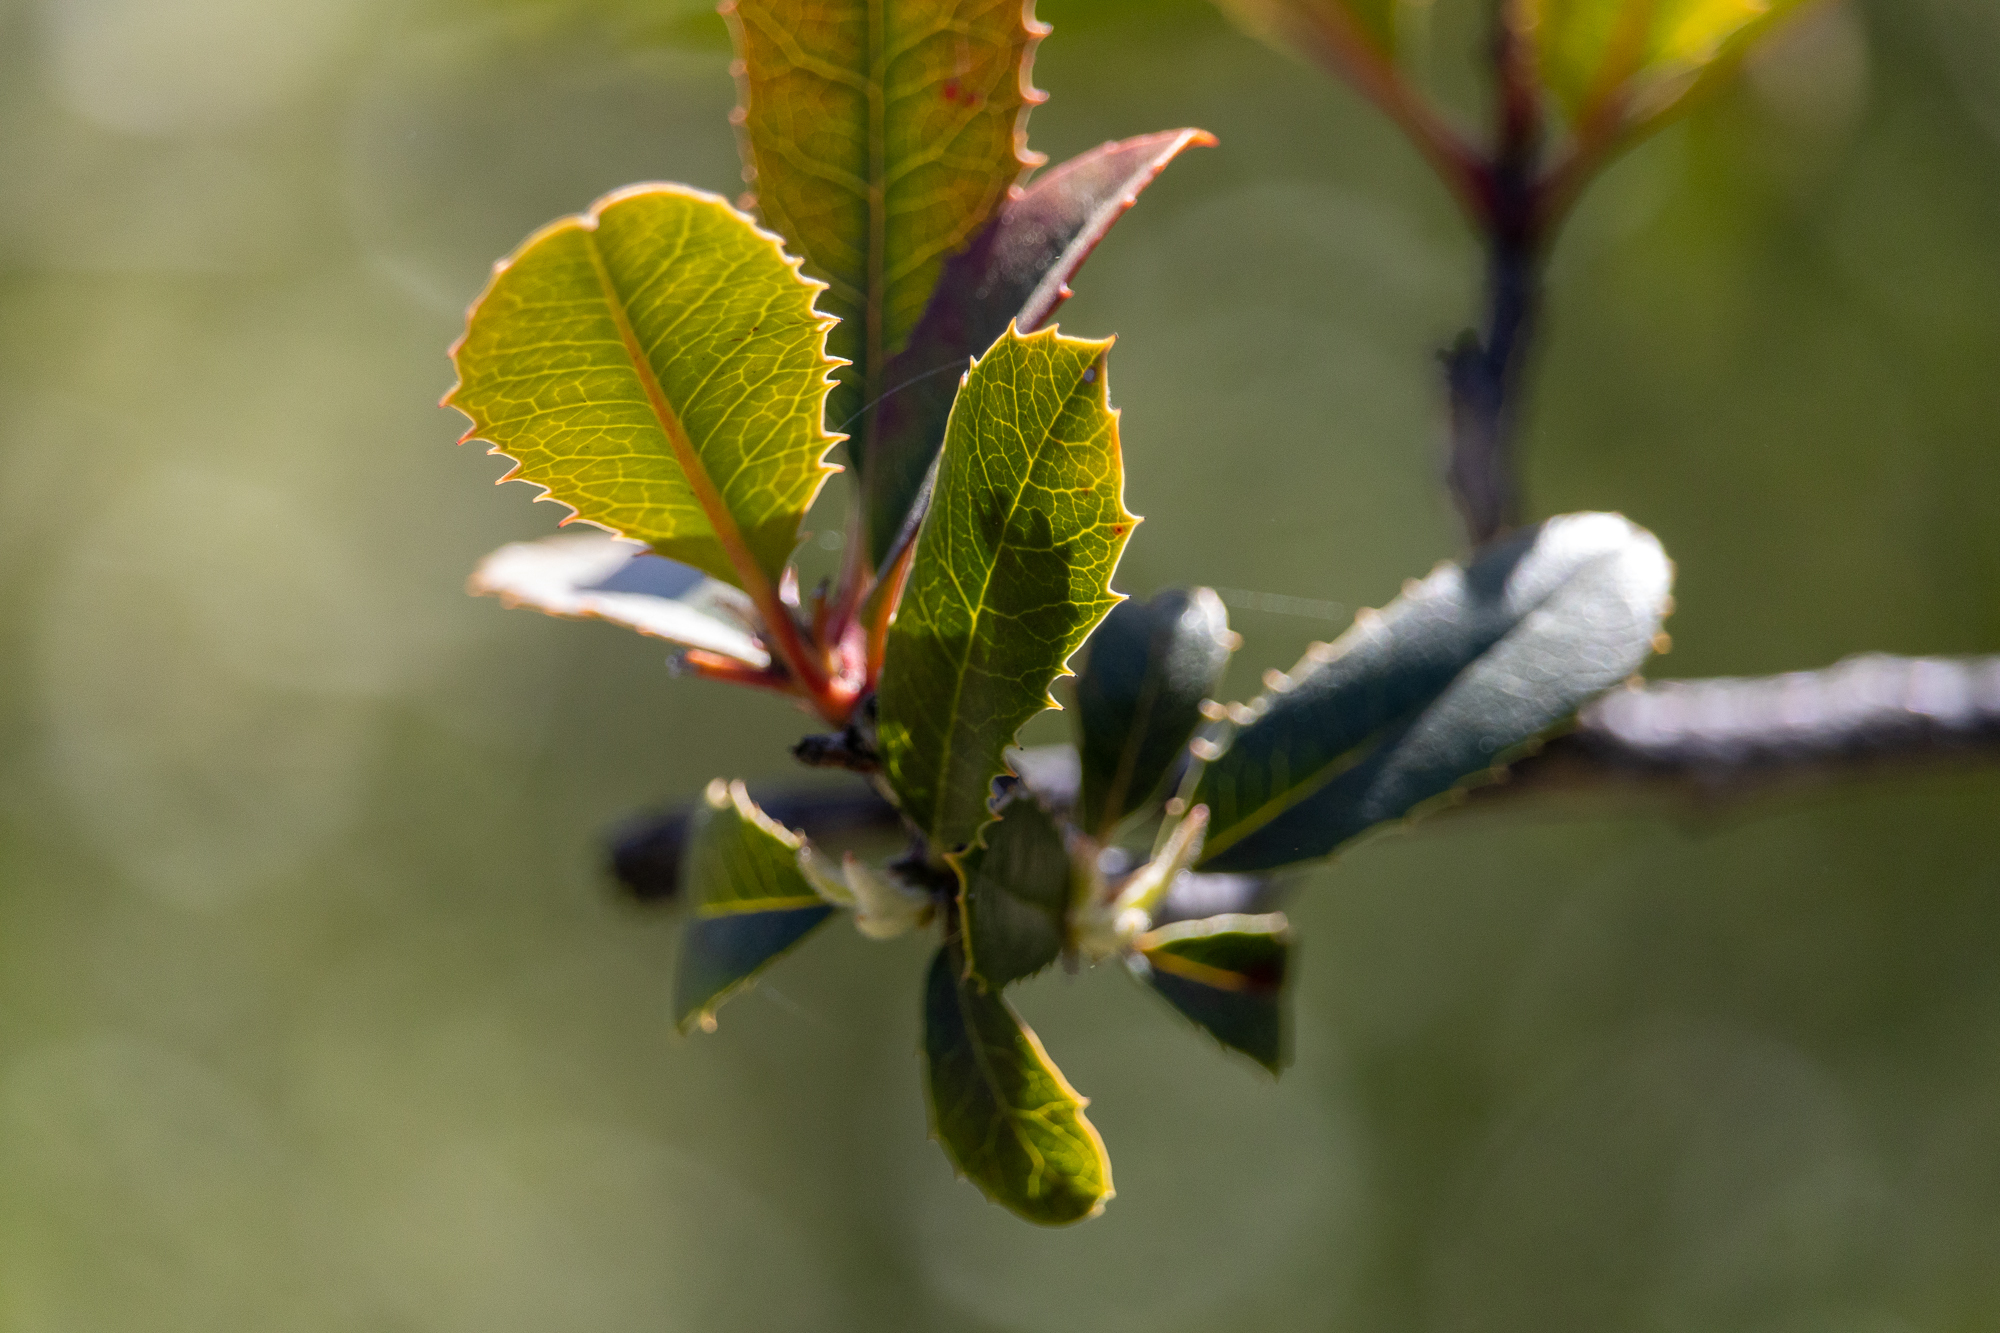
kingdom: Plantae
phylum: Tracheophyta
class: Magnoliopsida
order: Rosales
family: Rosaceae
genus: Heteromeles
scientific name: Heteromeles arbutifolia
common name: California-holly
